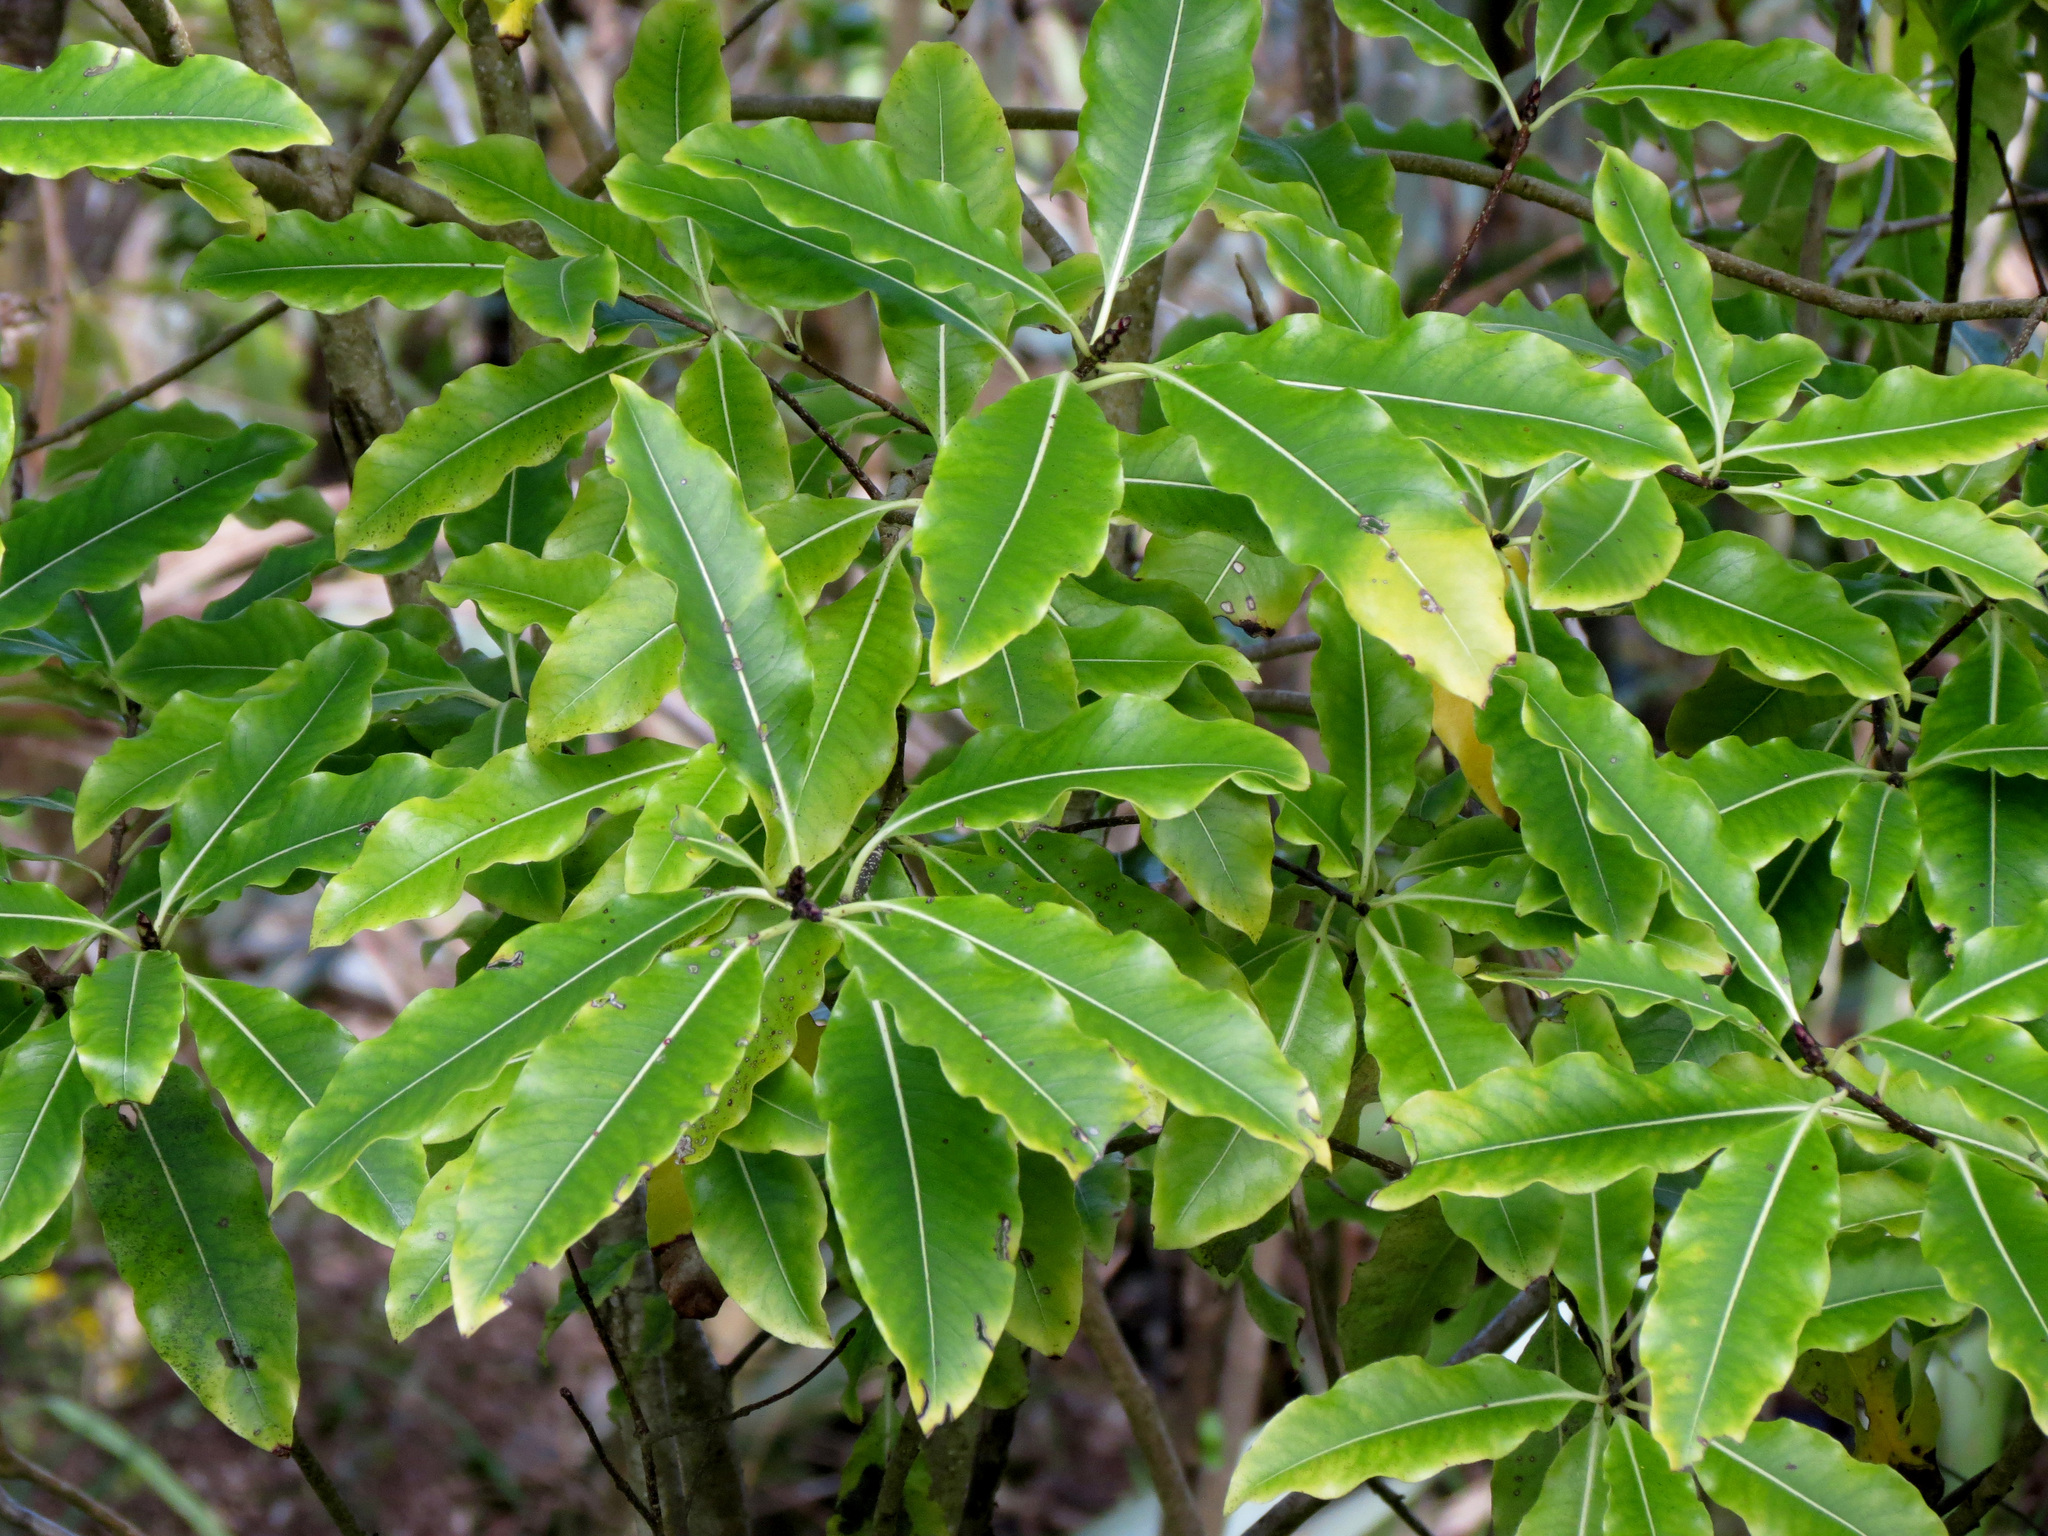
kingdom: Plantae
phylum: Tracheophyta
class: Magnoliopsida
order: Apiales
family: Pittosporaceae
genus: Pittosporum
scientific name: Pittosporum eugenioides
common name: Lemonwood
